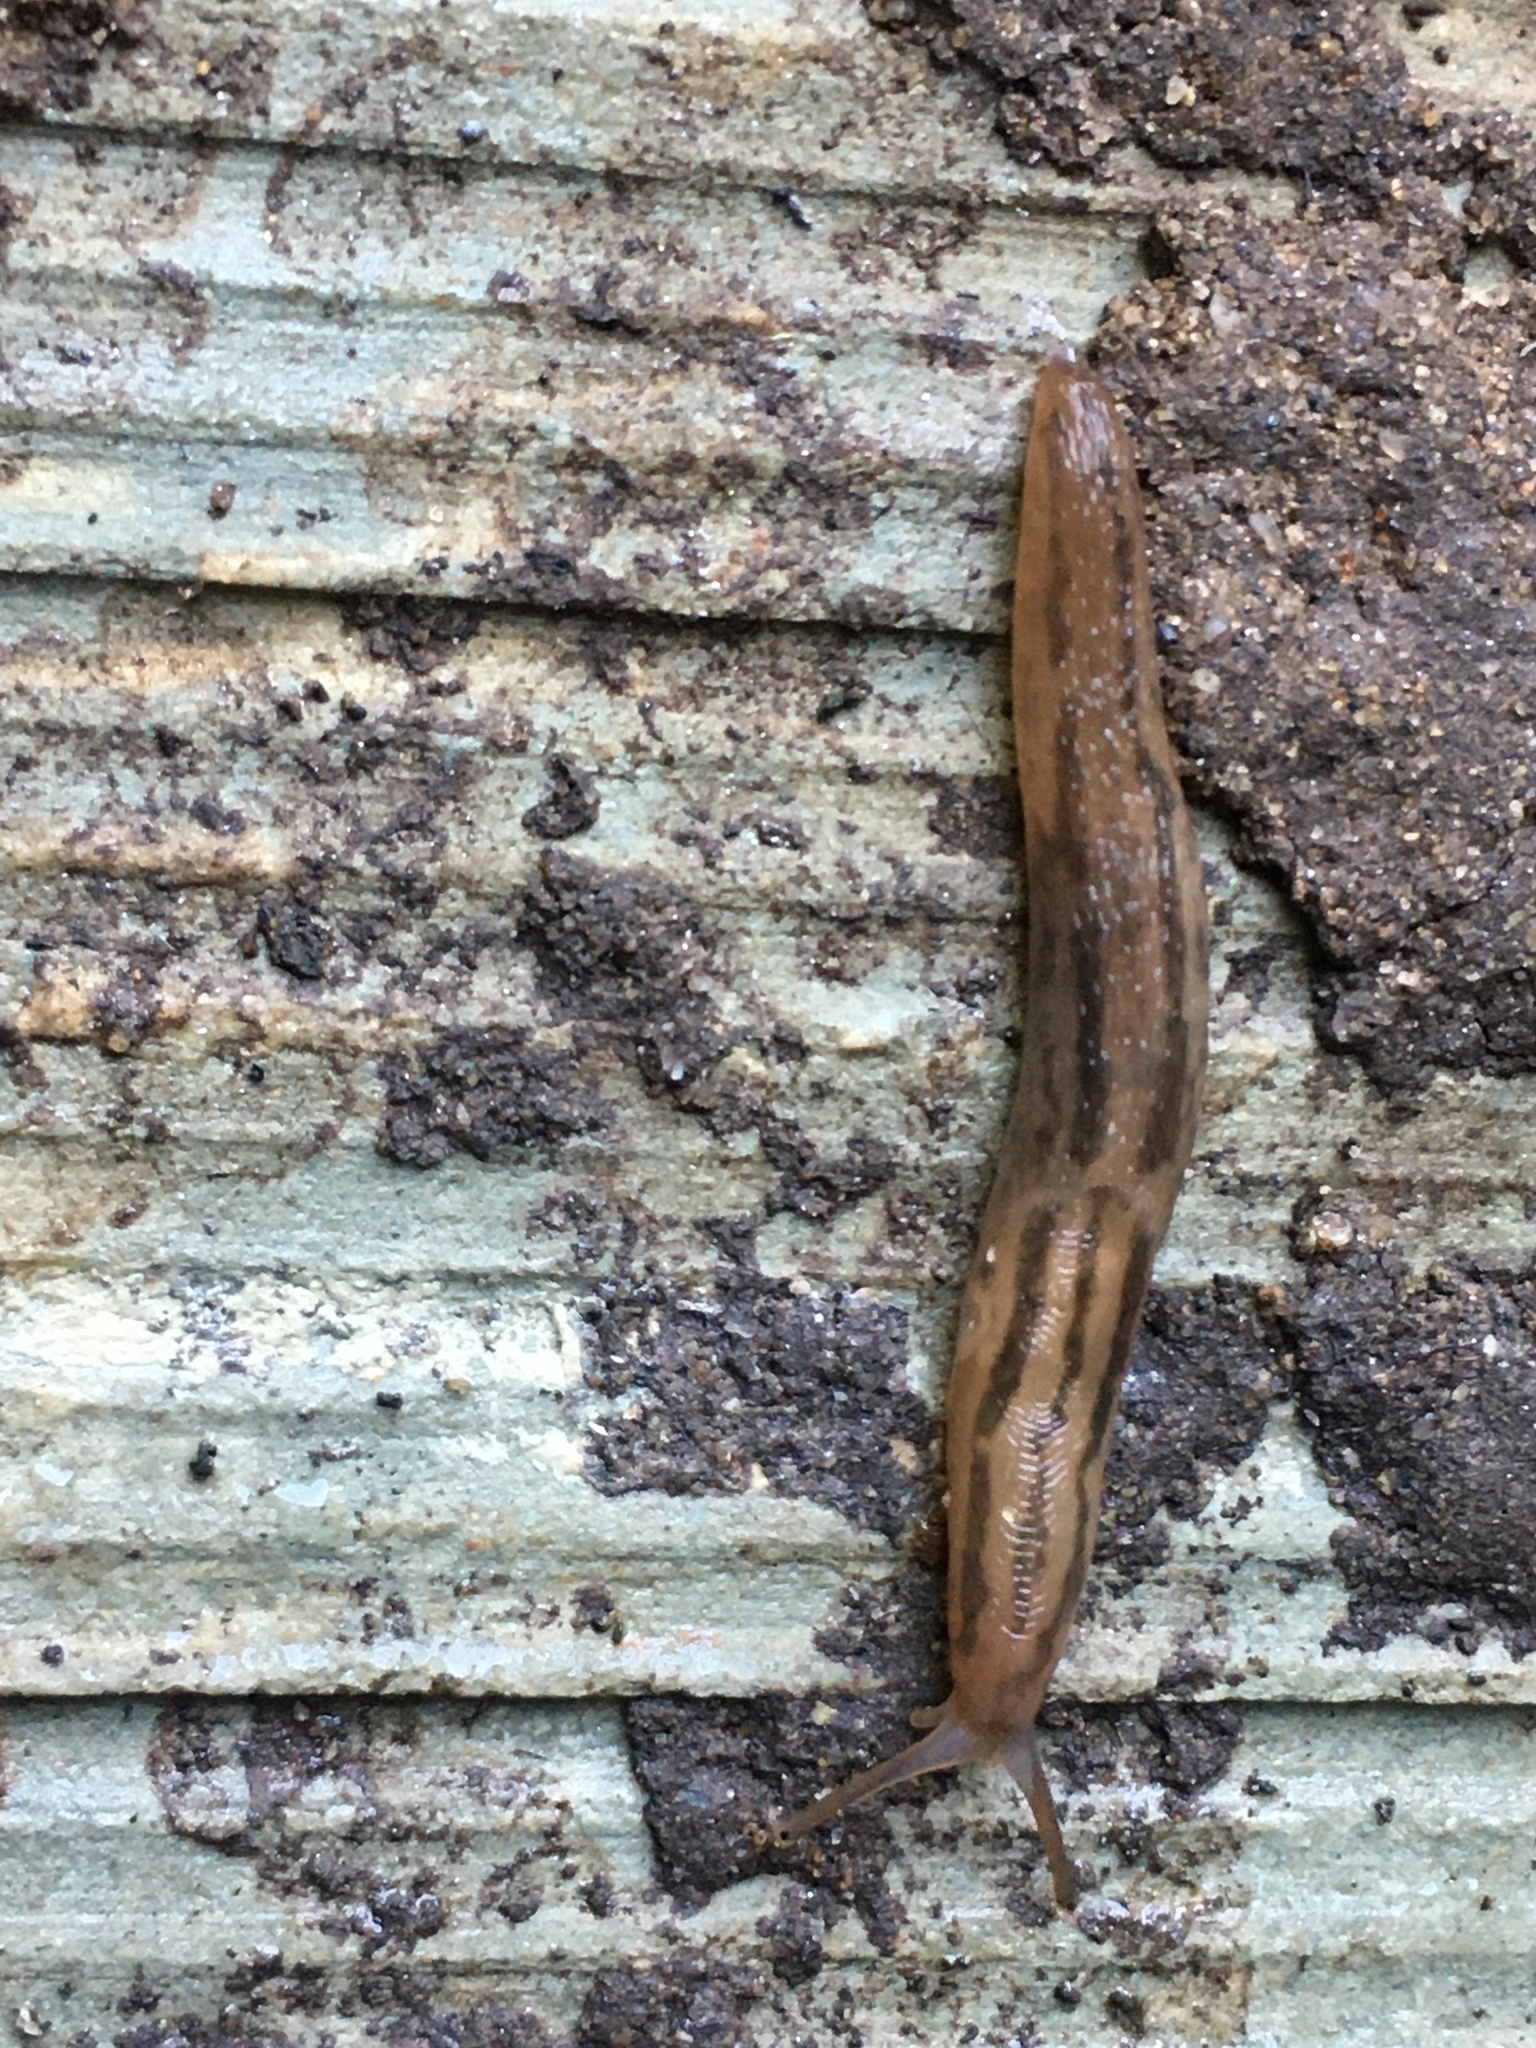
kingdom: Animalia
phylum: Mollusca
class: Gastropoda
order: Stylommatophora
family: Limacidae
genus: Ambigolimax
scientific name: Ambigolimax
